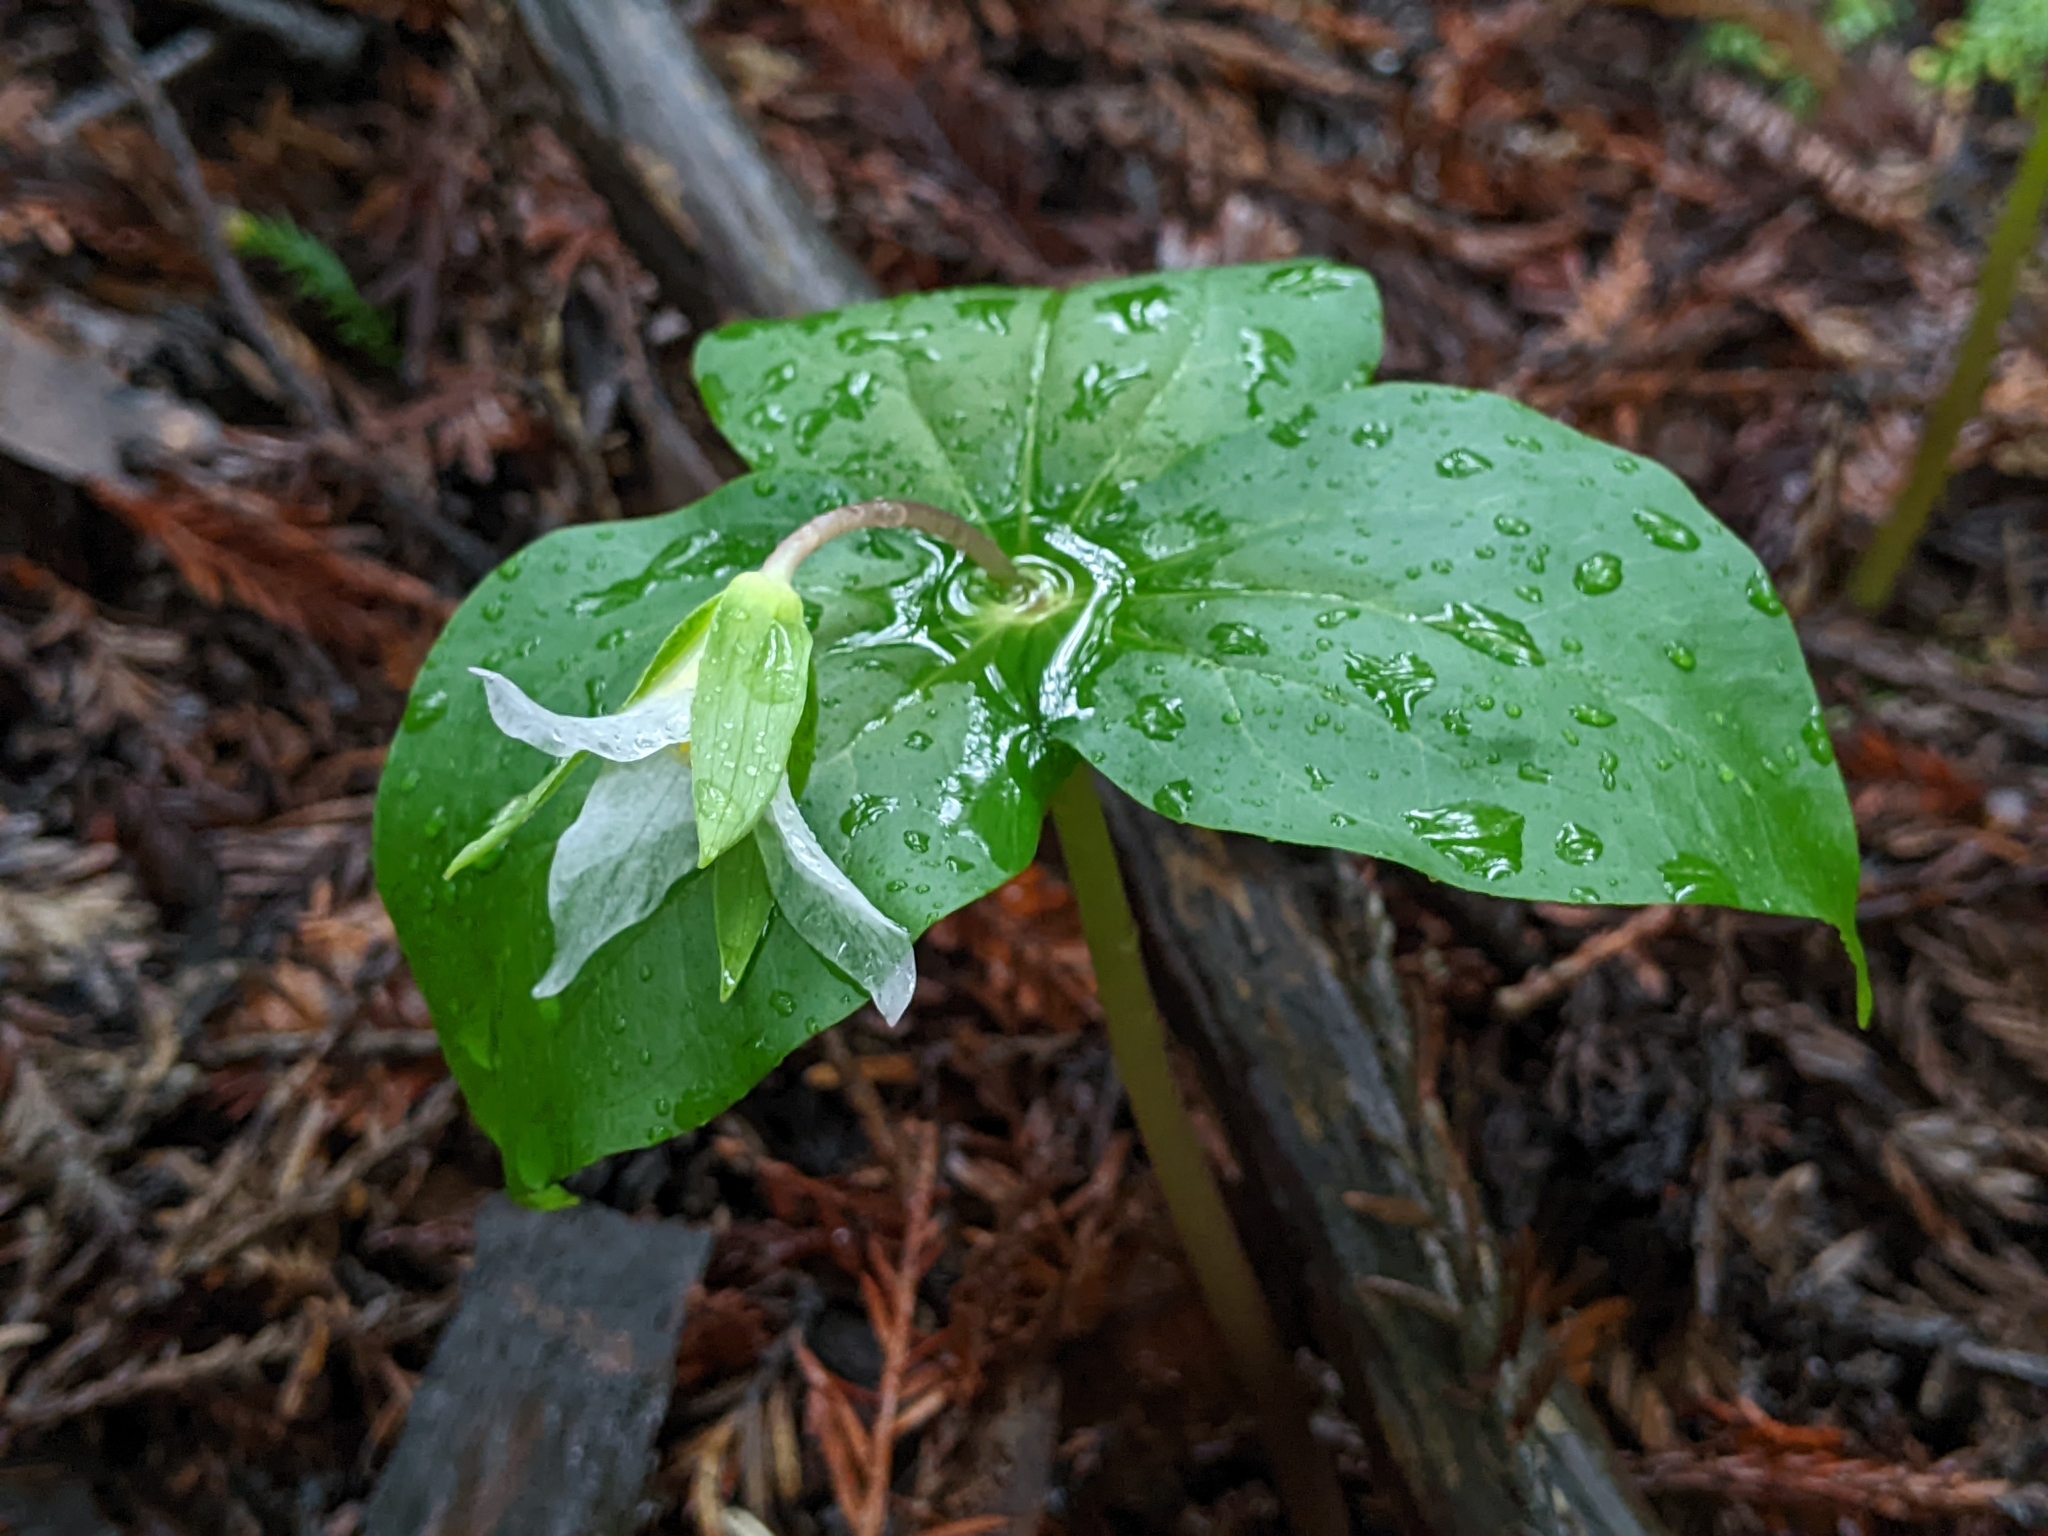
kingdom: Plantae
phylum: Tracheophyta
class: Liliopsida
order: Liliales
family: Melanthiaceae
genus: Trillium
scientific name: Trillium ovatum
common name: Pacific trillium
